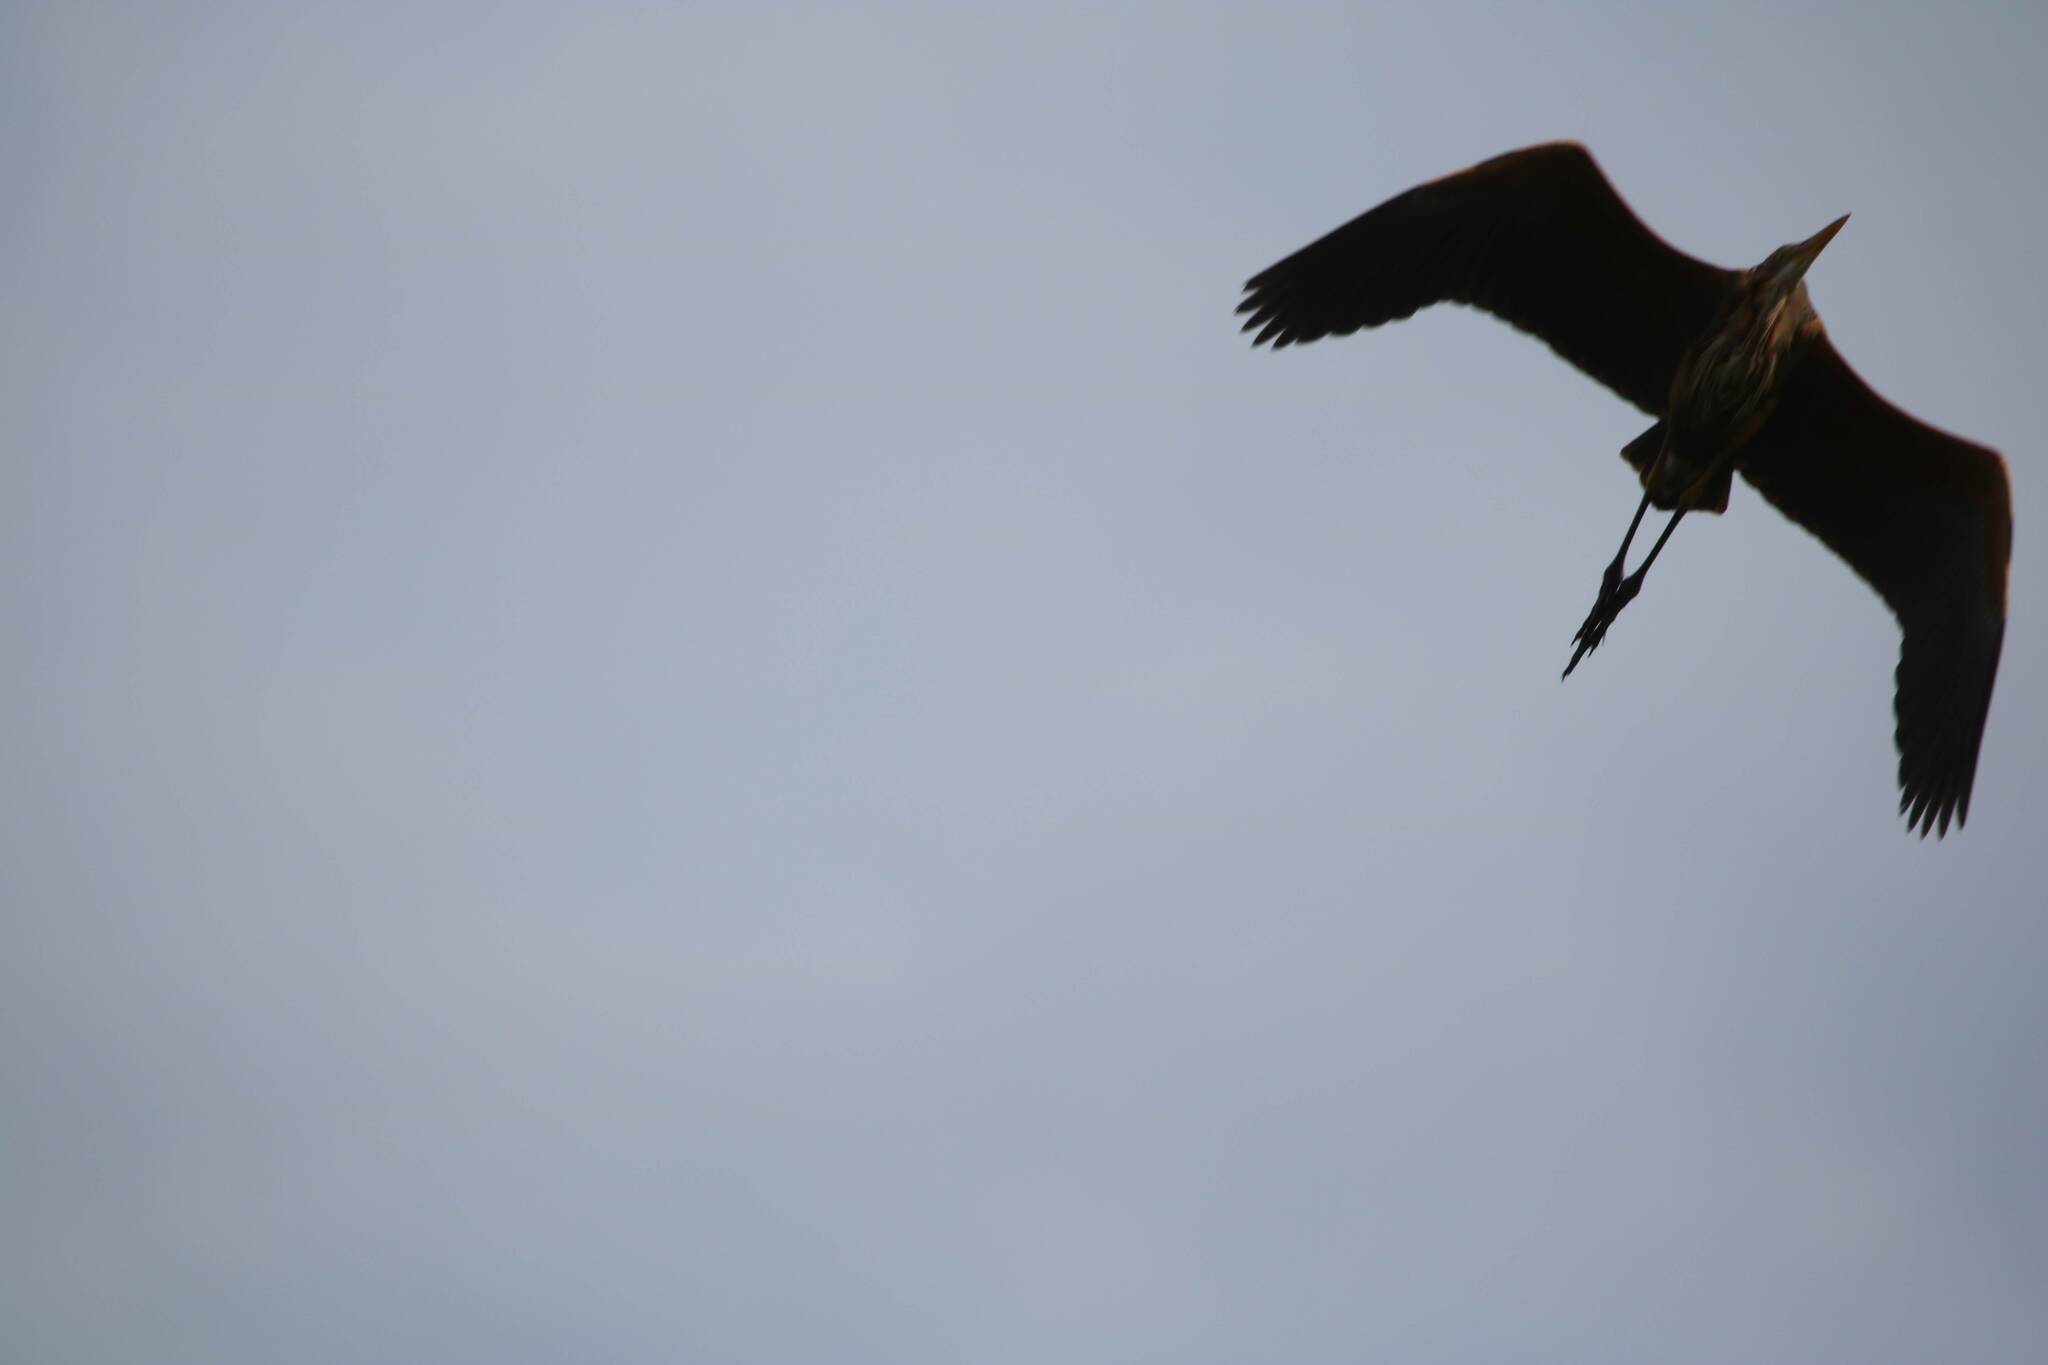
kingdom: Animalia
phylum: Chordata
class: Aves
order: Pelecaniformes
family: Ardeidae
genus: Ardea
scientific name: Ardea purpurea
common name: Purple heron
